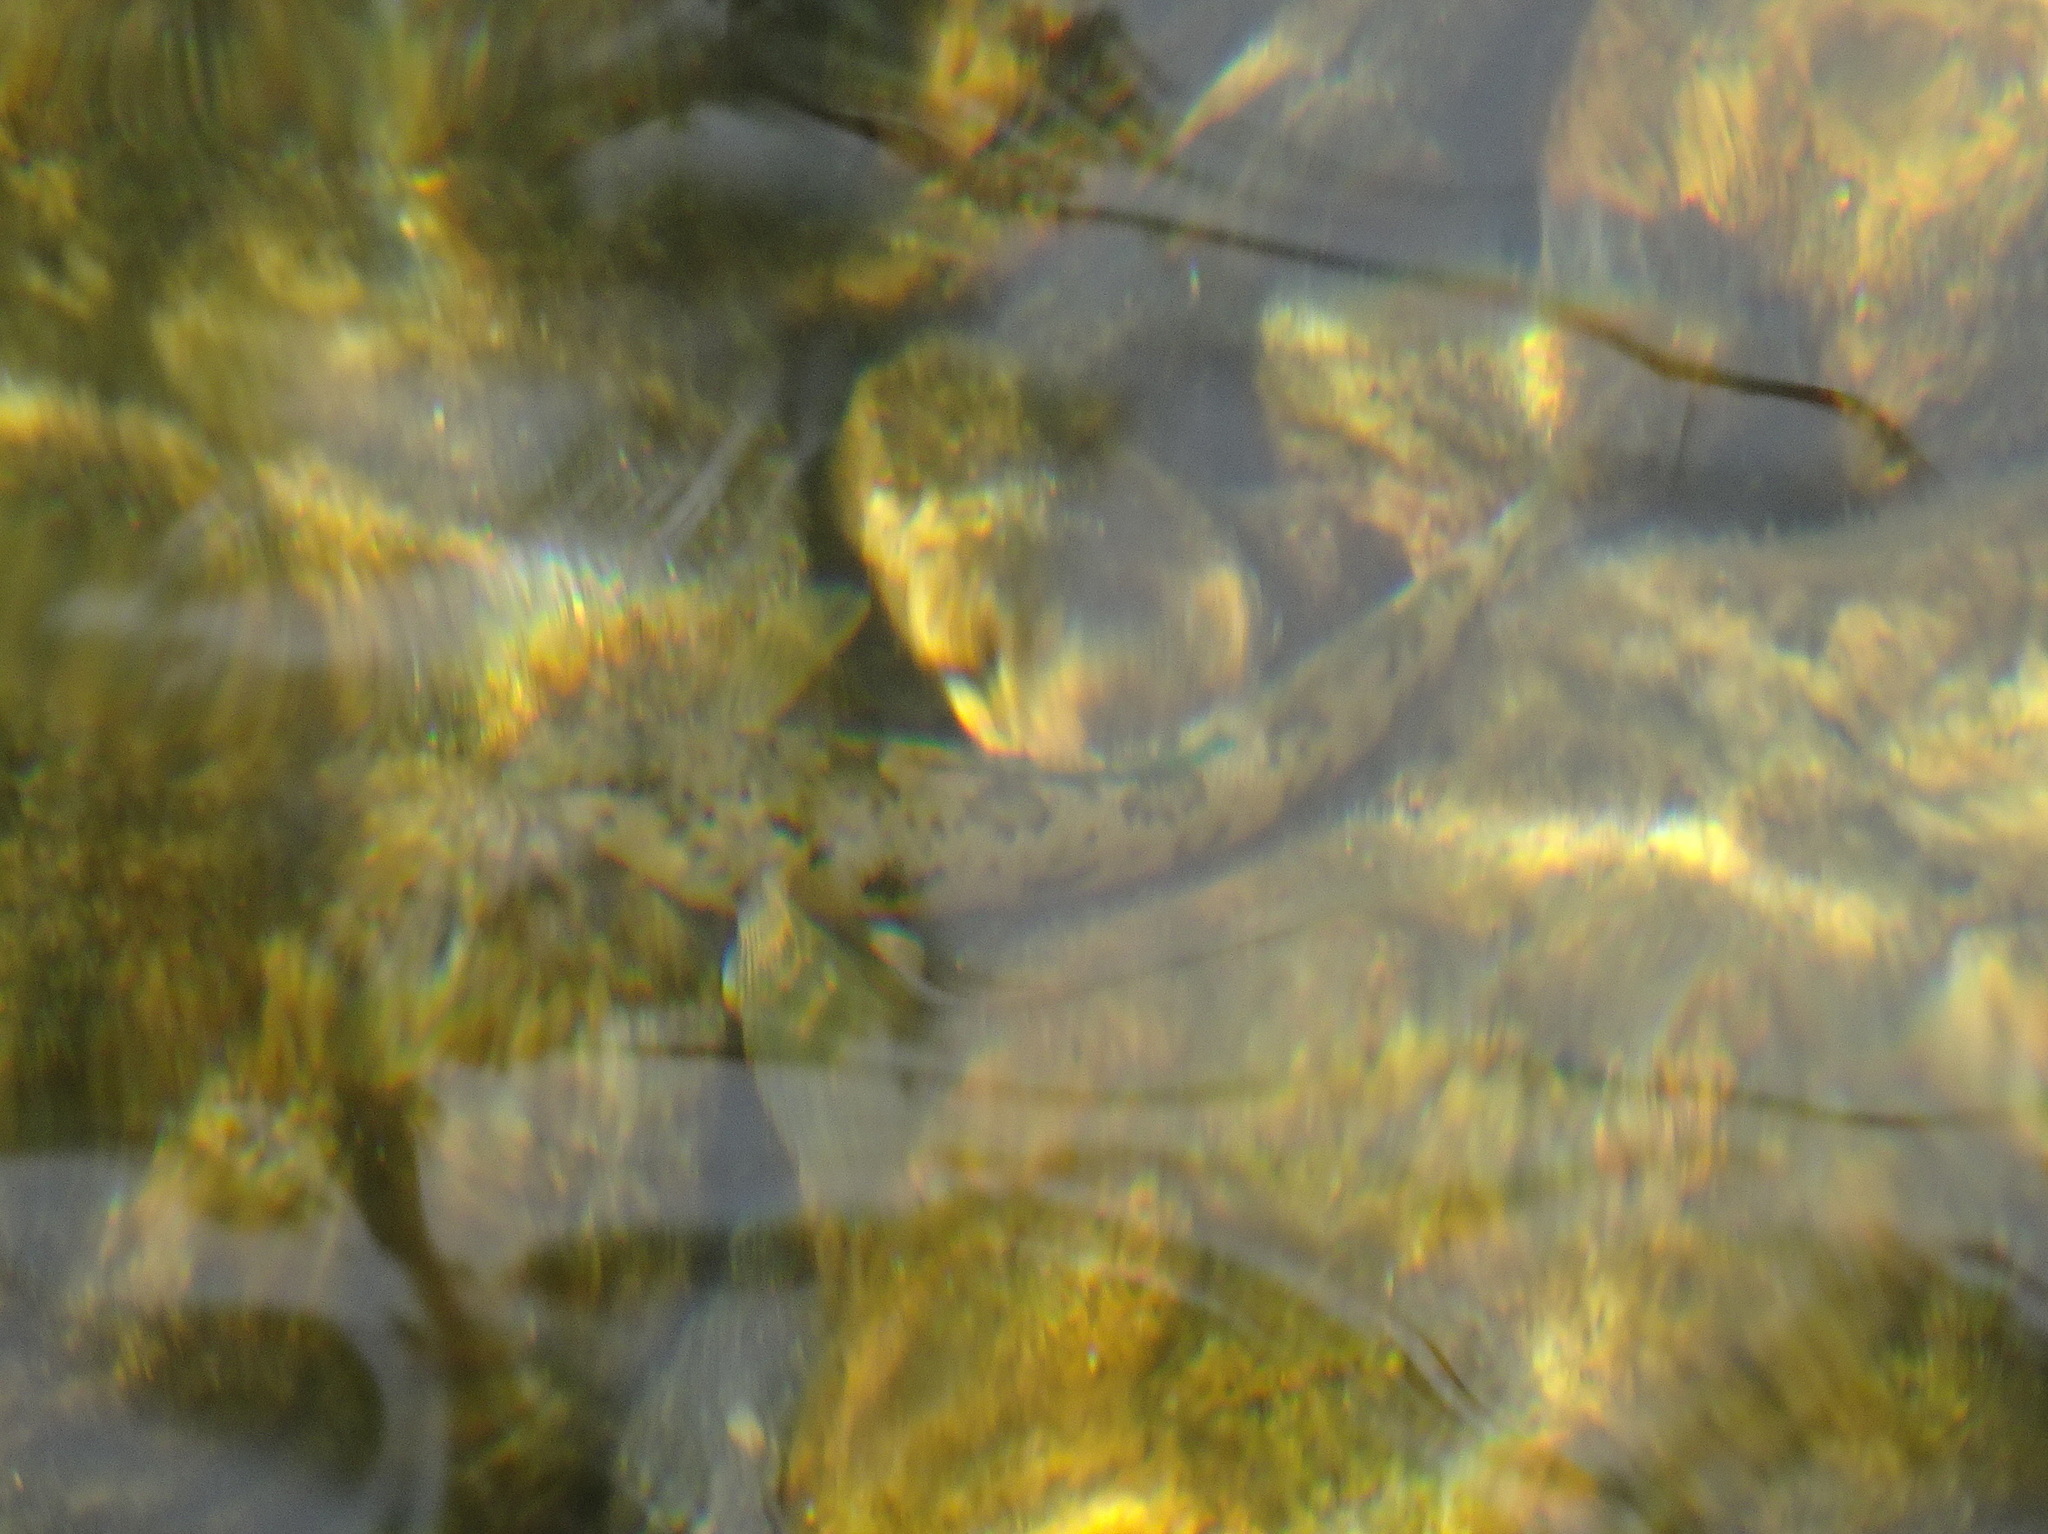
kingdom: Animalia
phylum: Chordata
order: Perciformes
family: Percidae
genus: Etheostoma
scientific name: Etheostoma blennioides
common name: Greenside darter
